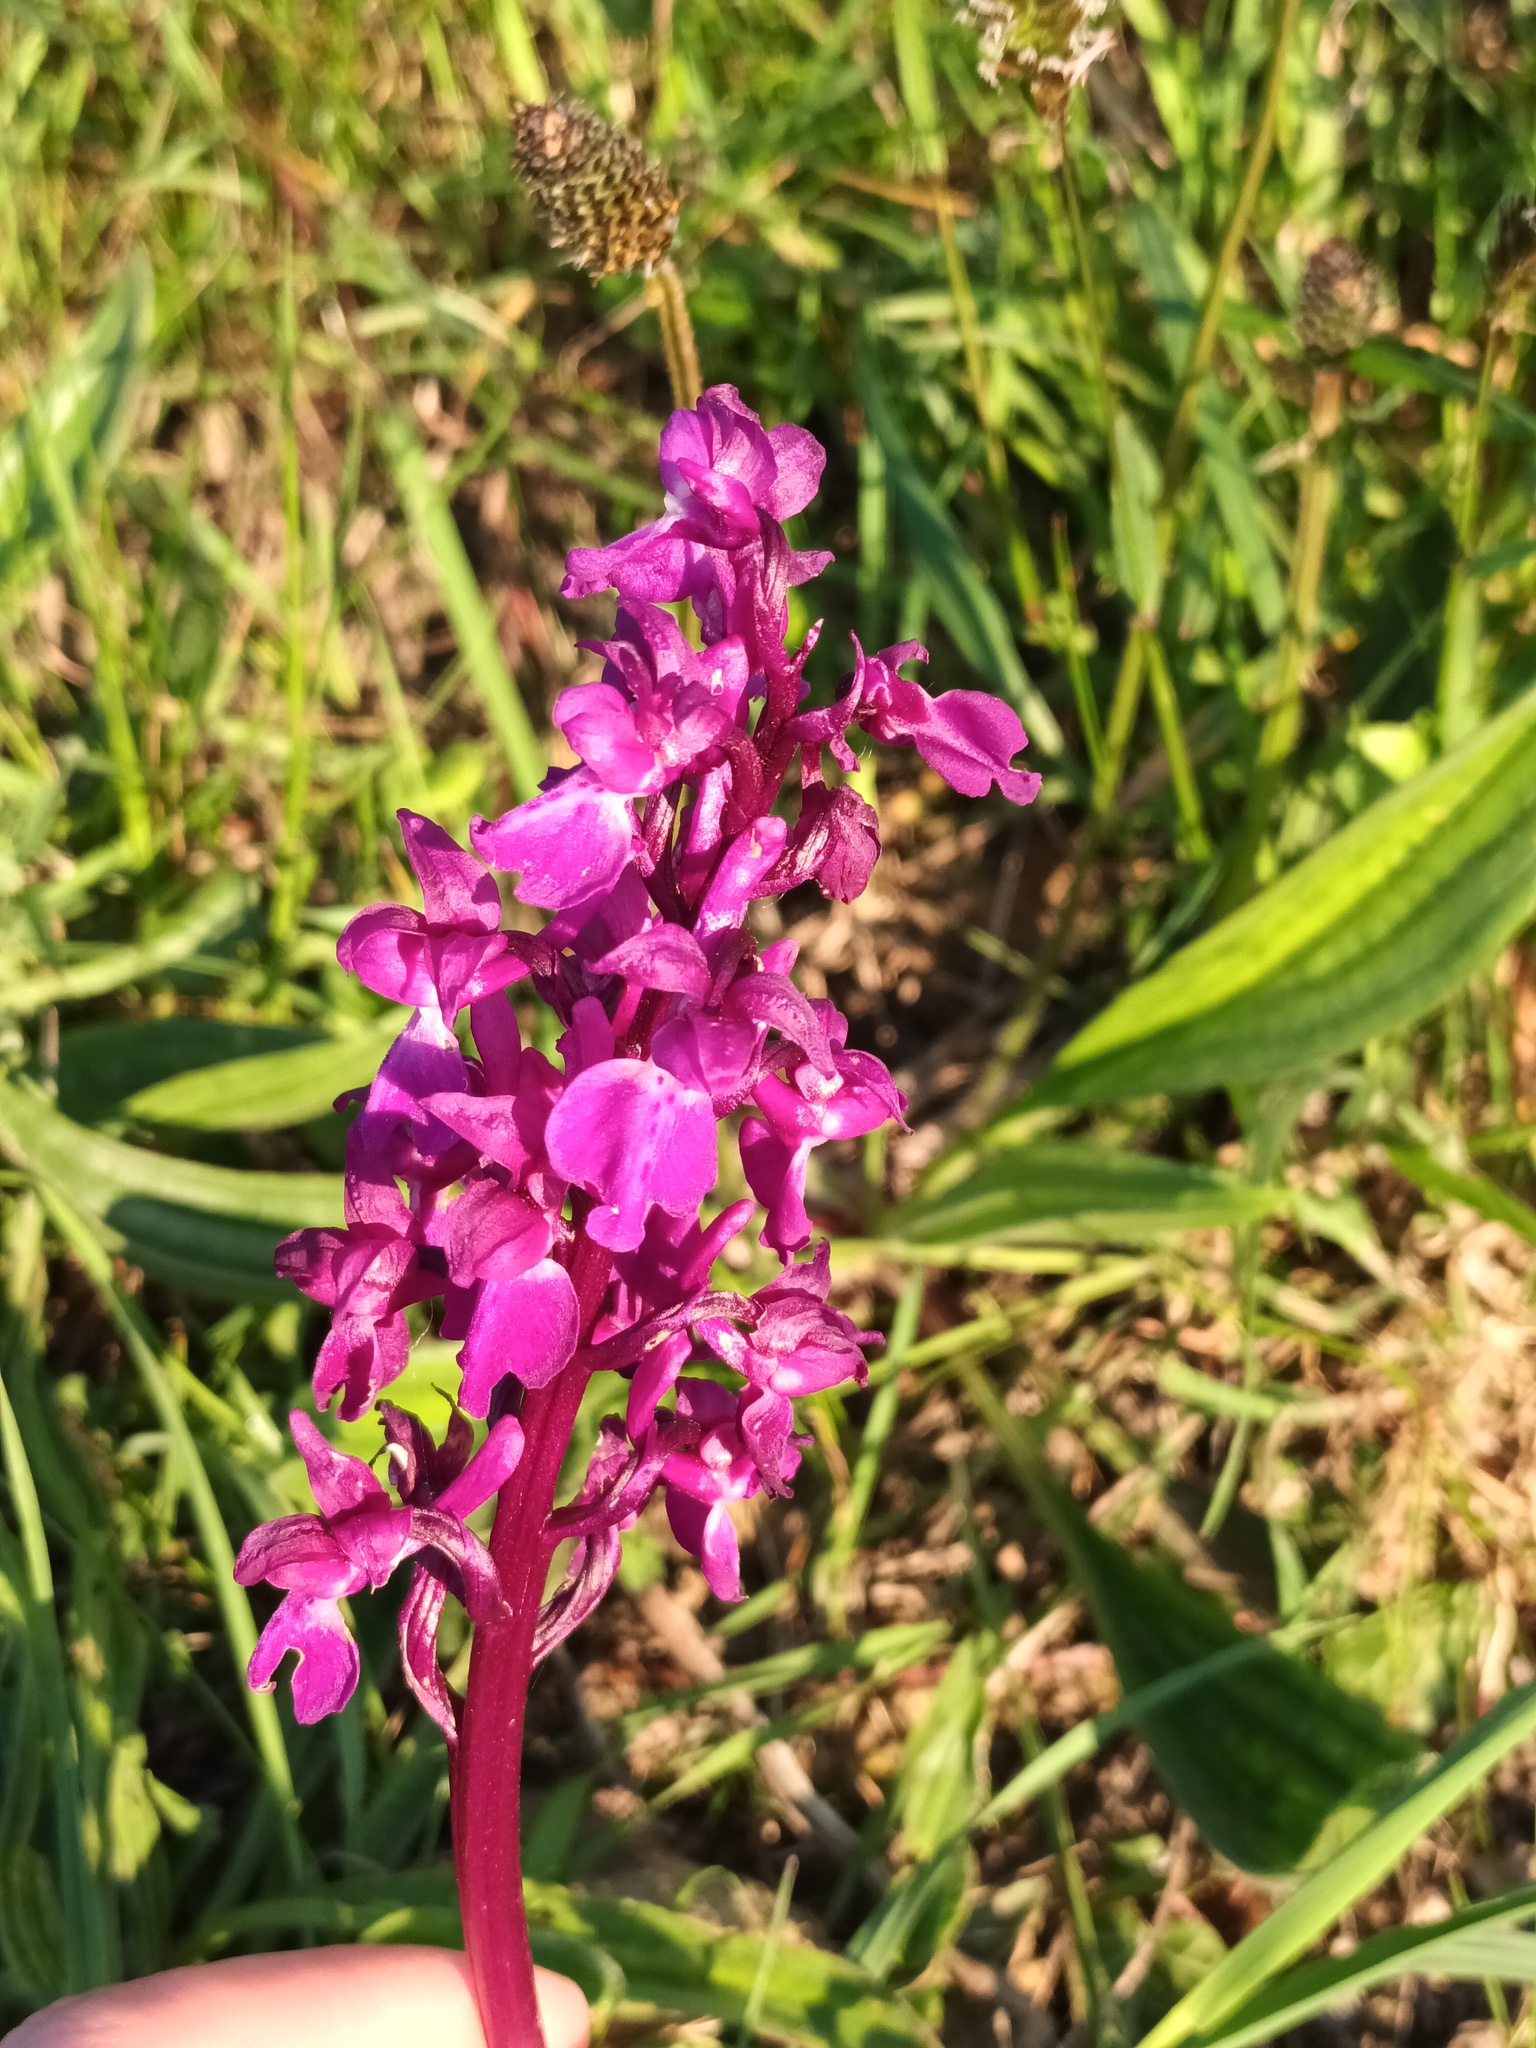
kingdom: Plantae
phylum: Tracheophyta
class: Liliopsida
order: Asparagales
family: Orchidaceae
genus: Orchis
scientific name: Orchis mascula
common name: Early-purple orchid
